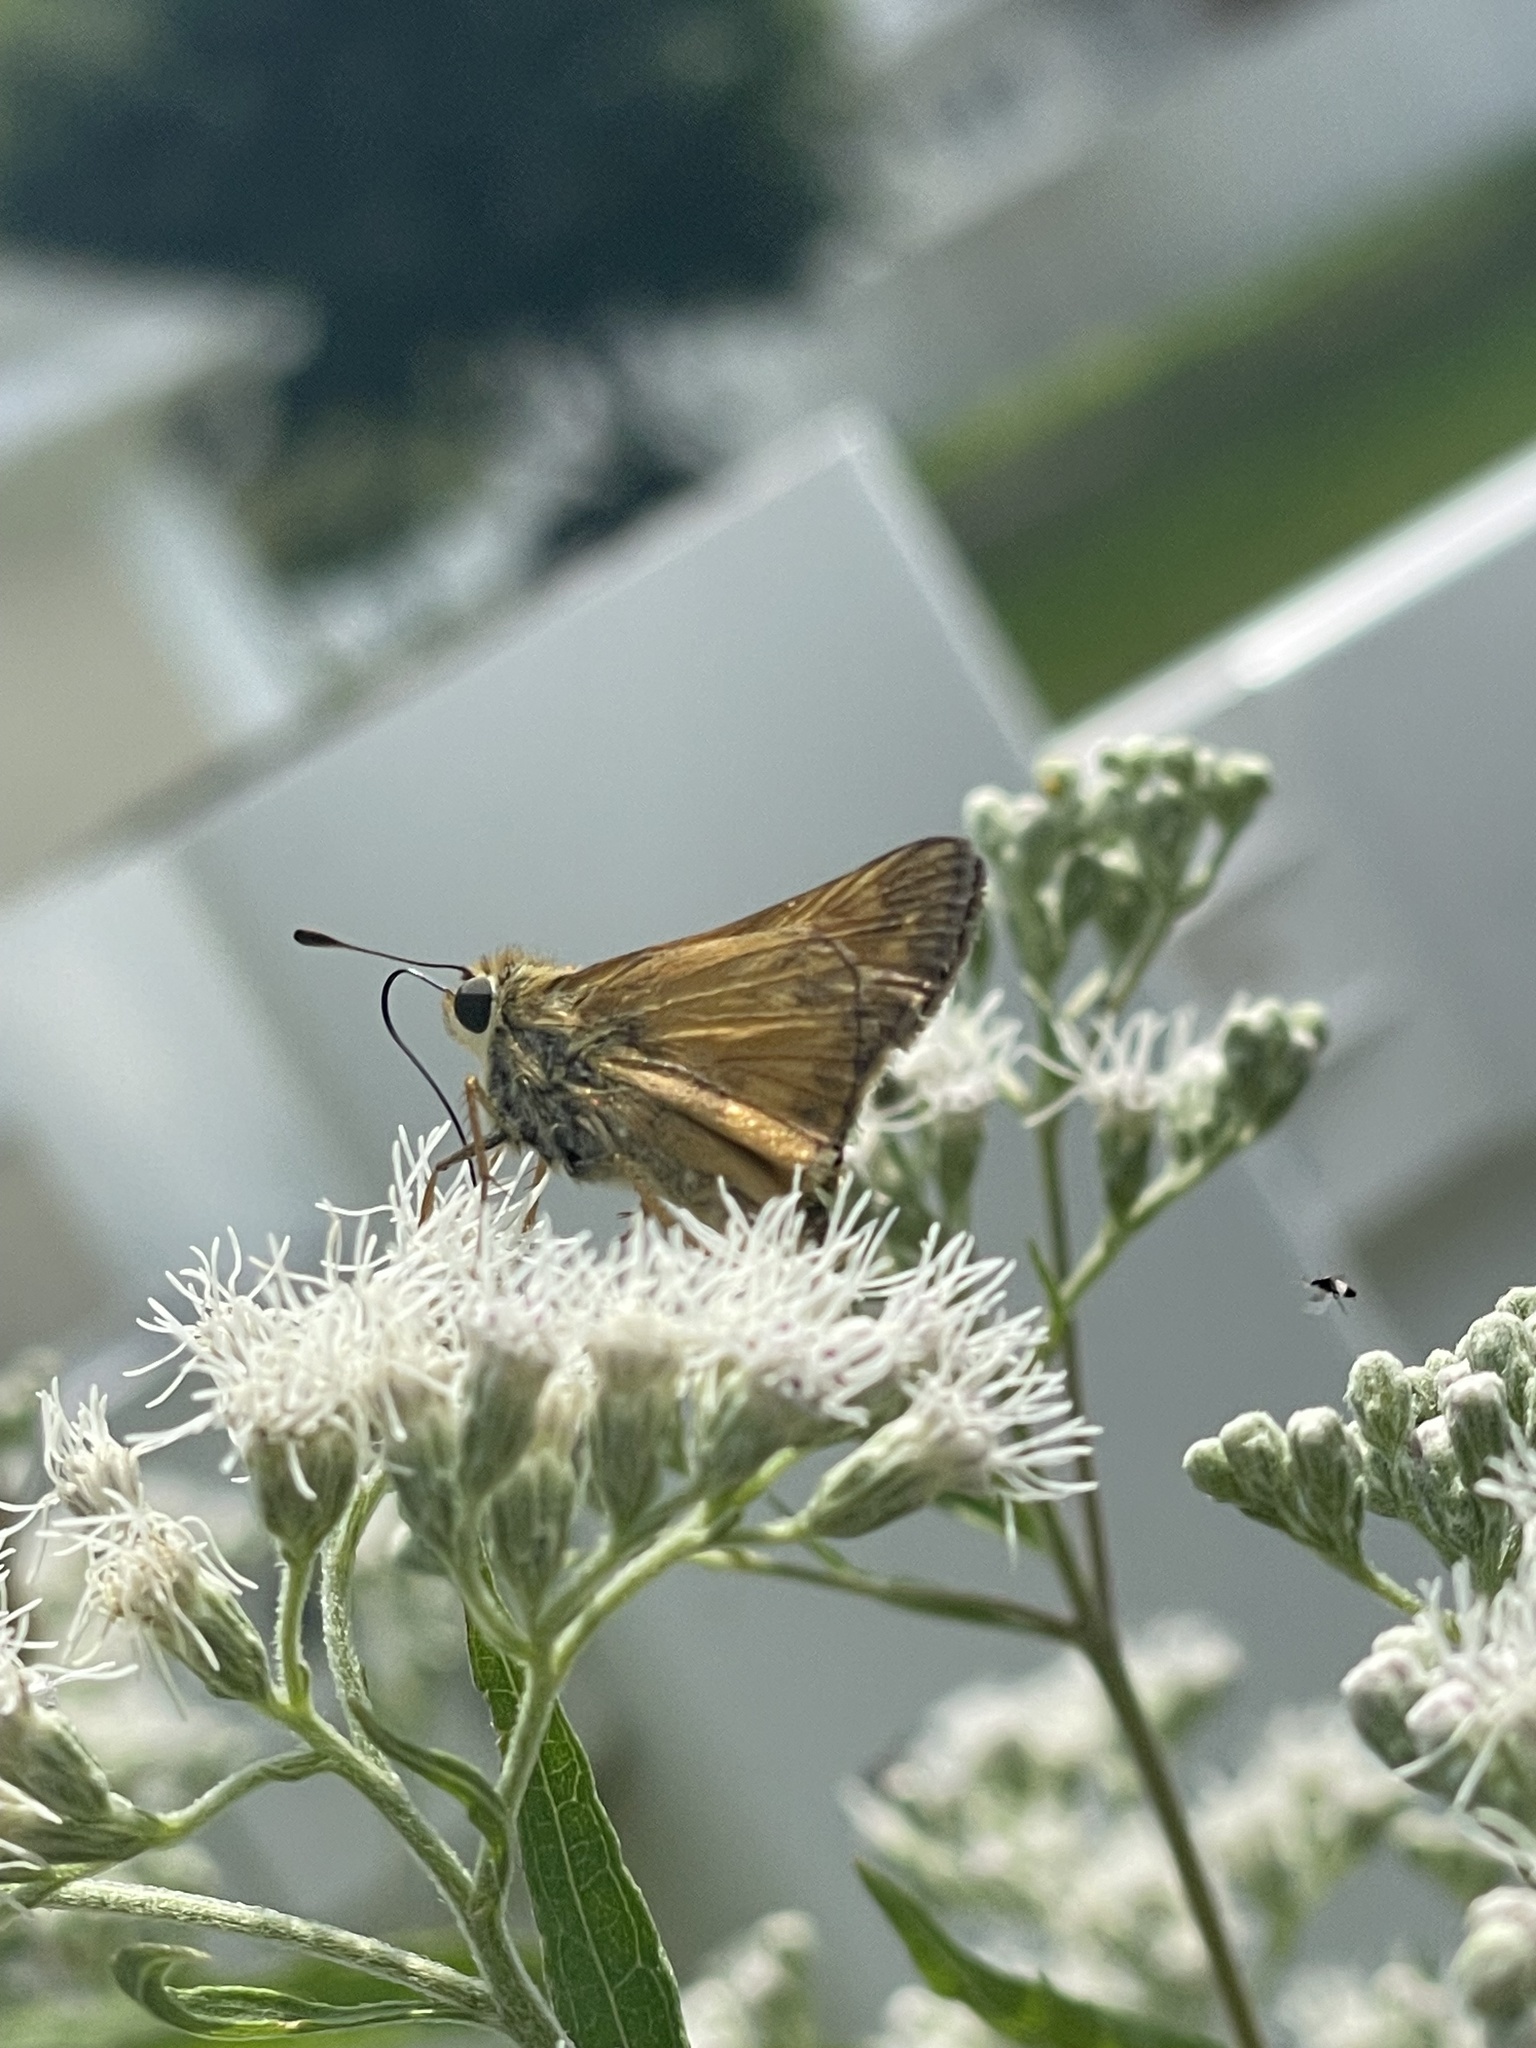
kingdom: Animalia
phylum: Arthropoda
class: Insecta
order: Lepidoptera
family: Hesperiidae
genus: Atalopedes
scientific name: Atalopedes
